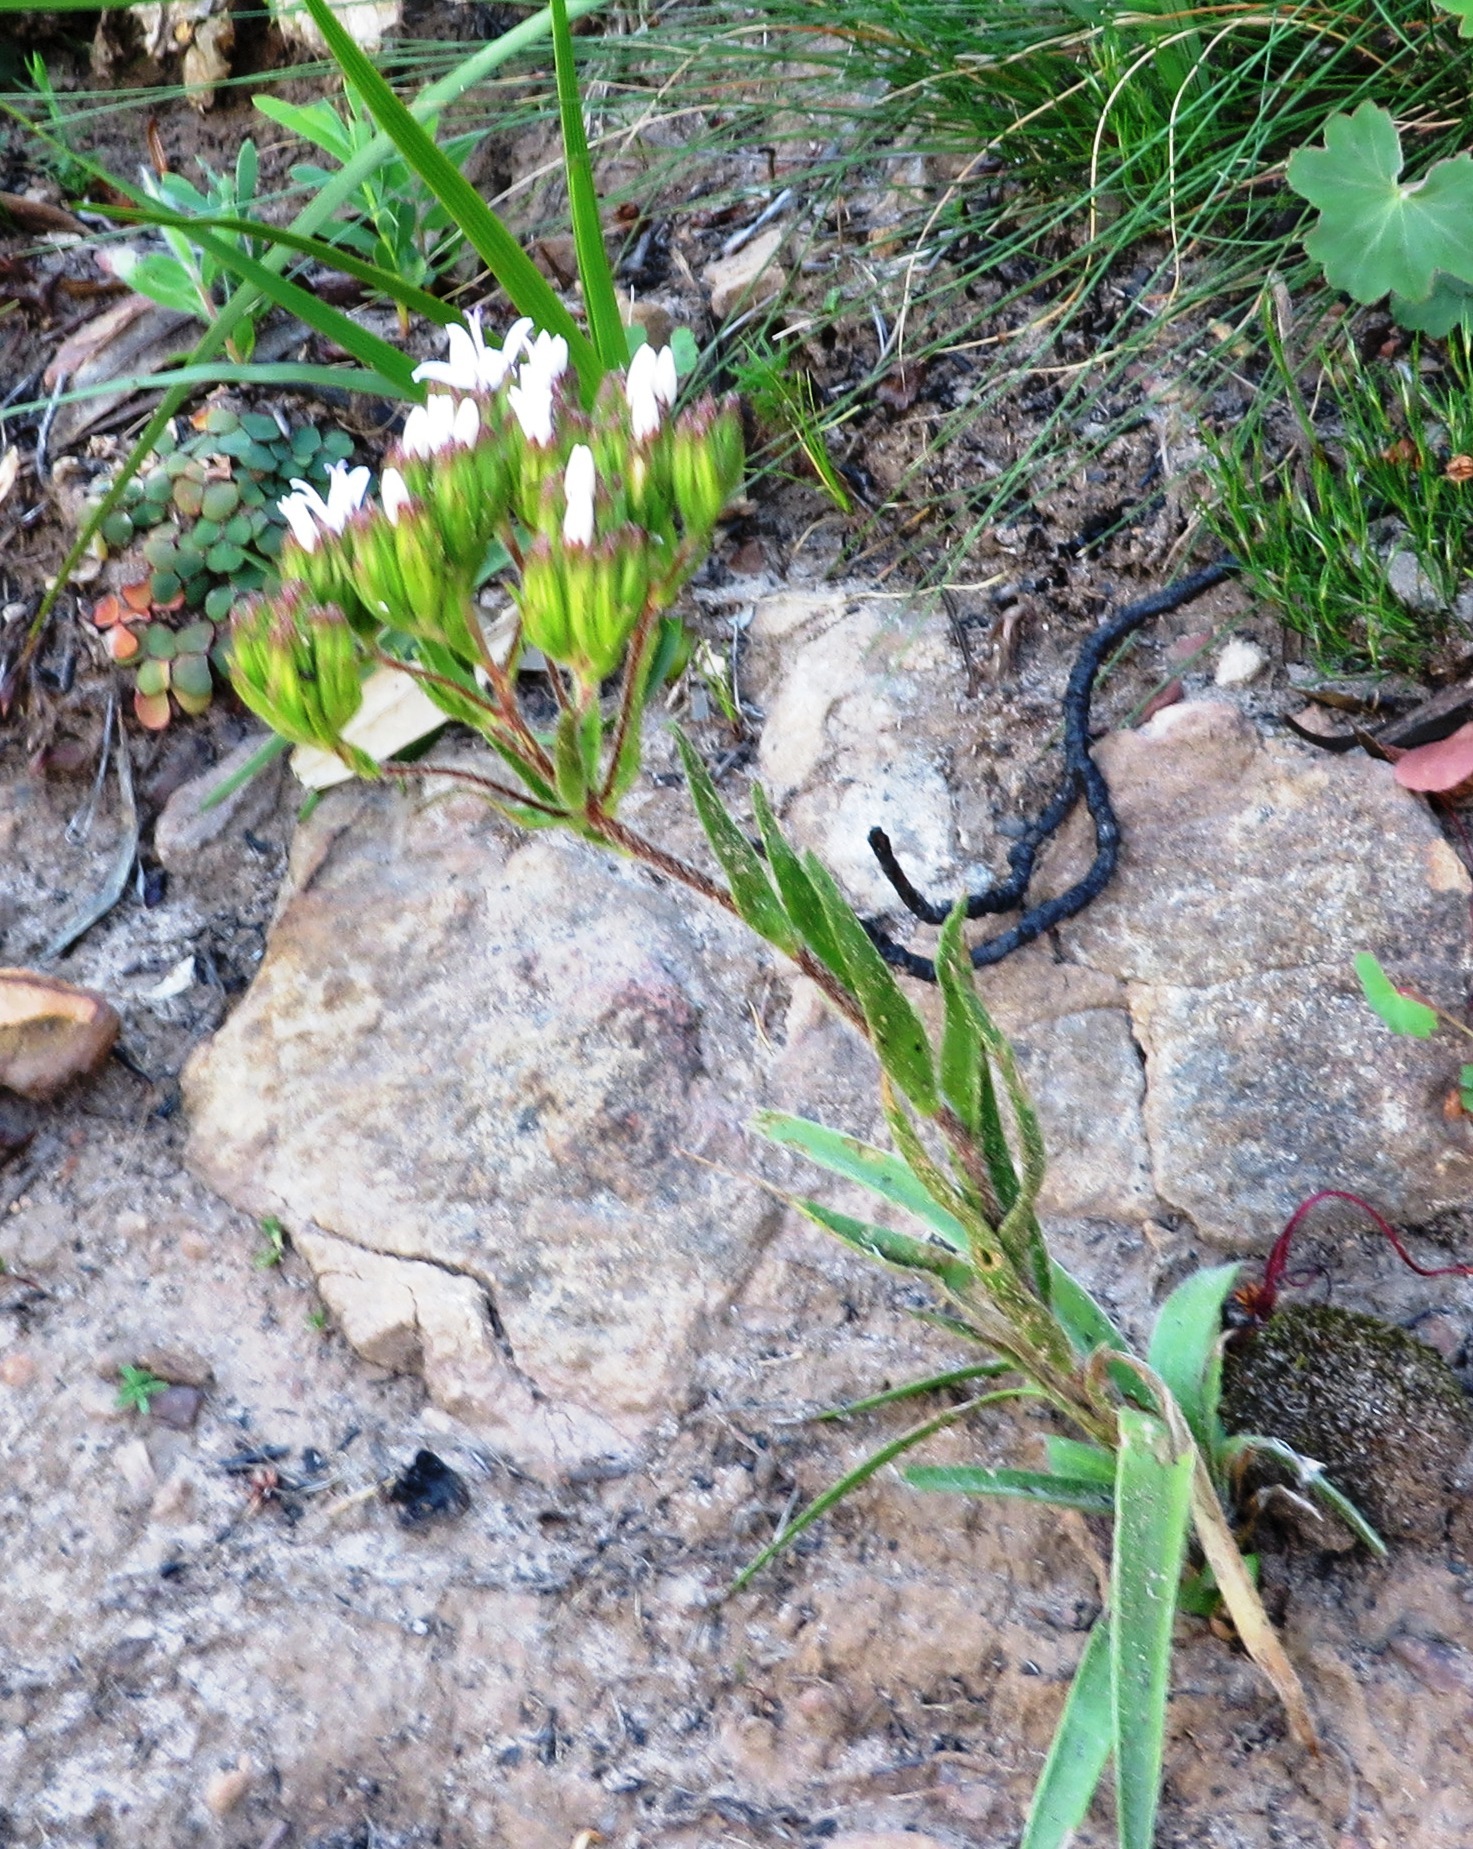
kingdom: Plantae
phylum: Tracheophyta
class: Magnoliopsida
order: Asterales
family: Asteraceae
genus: Corymbium
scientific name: Corymbium villosum
